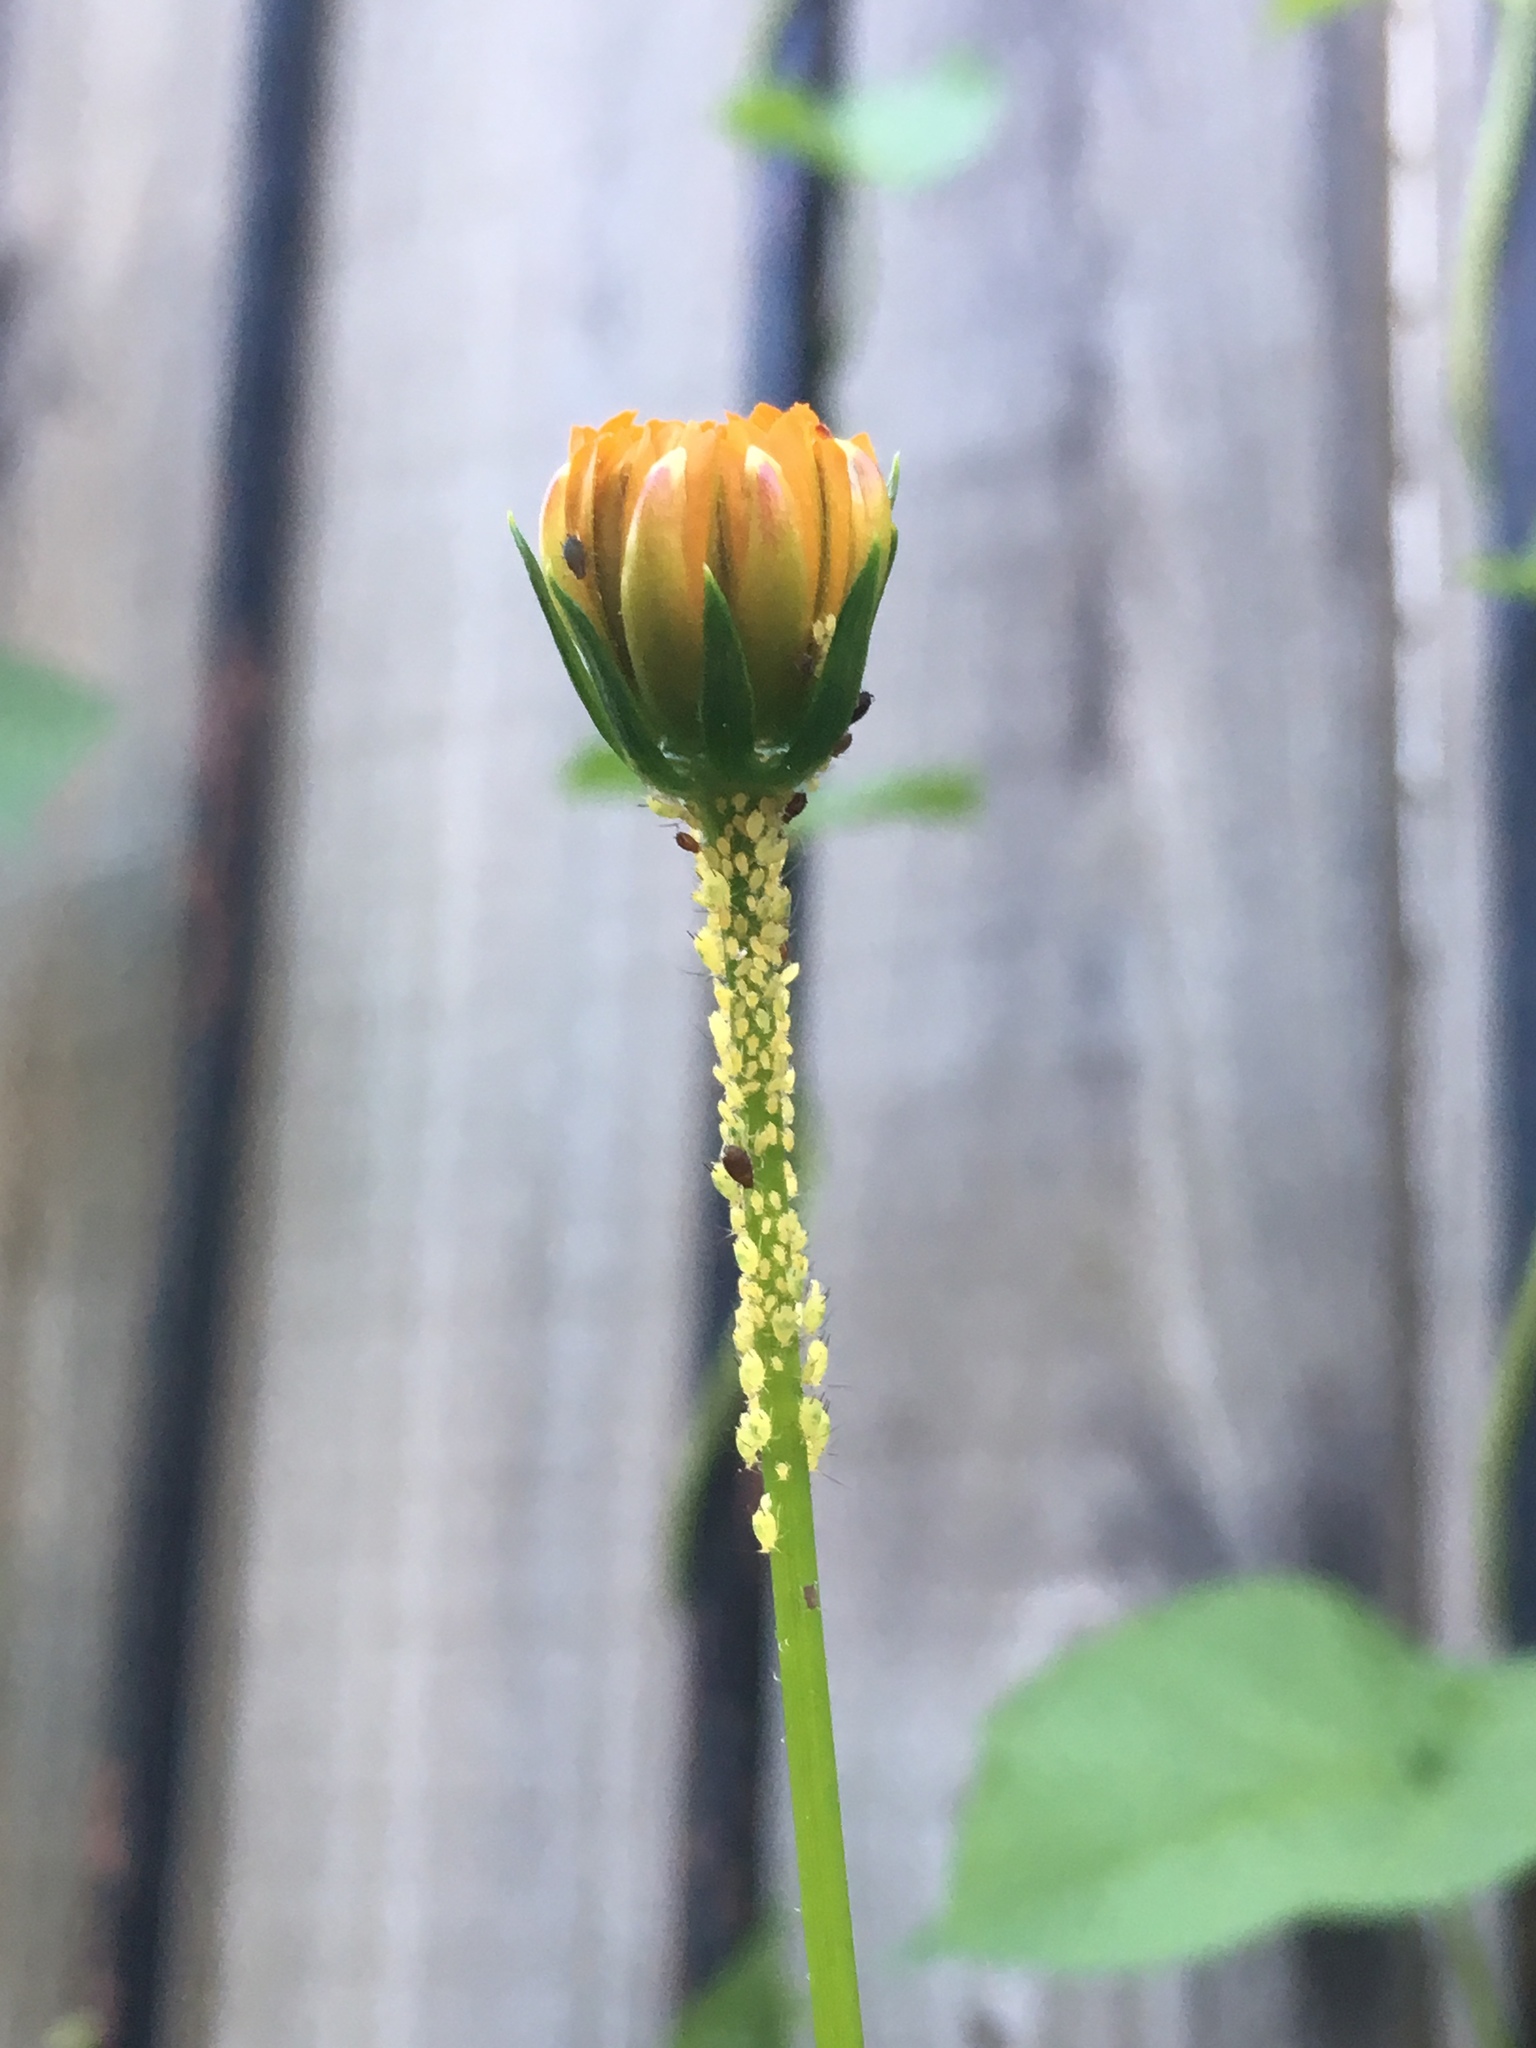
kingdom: Animalia
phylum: Arthropoda
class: Insecta
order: Hemiptera
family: Aphididae
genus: Aphis
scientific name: Aphis coreopsidis
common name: Aphid
